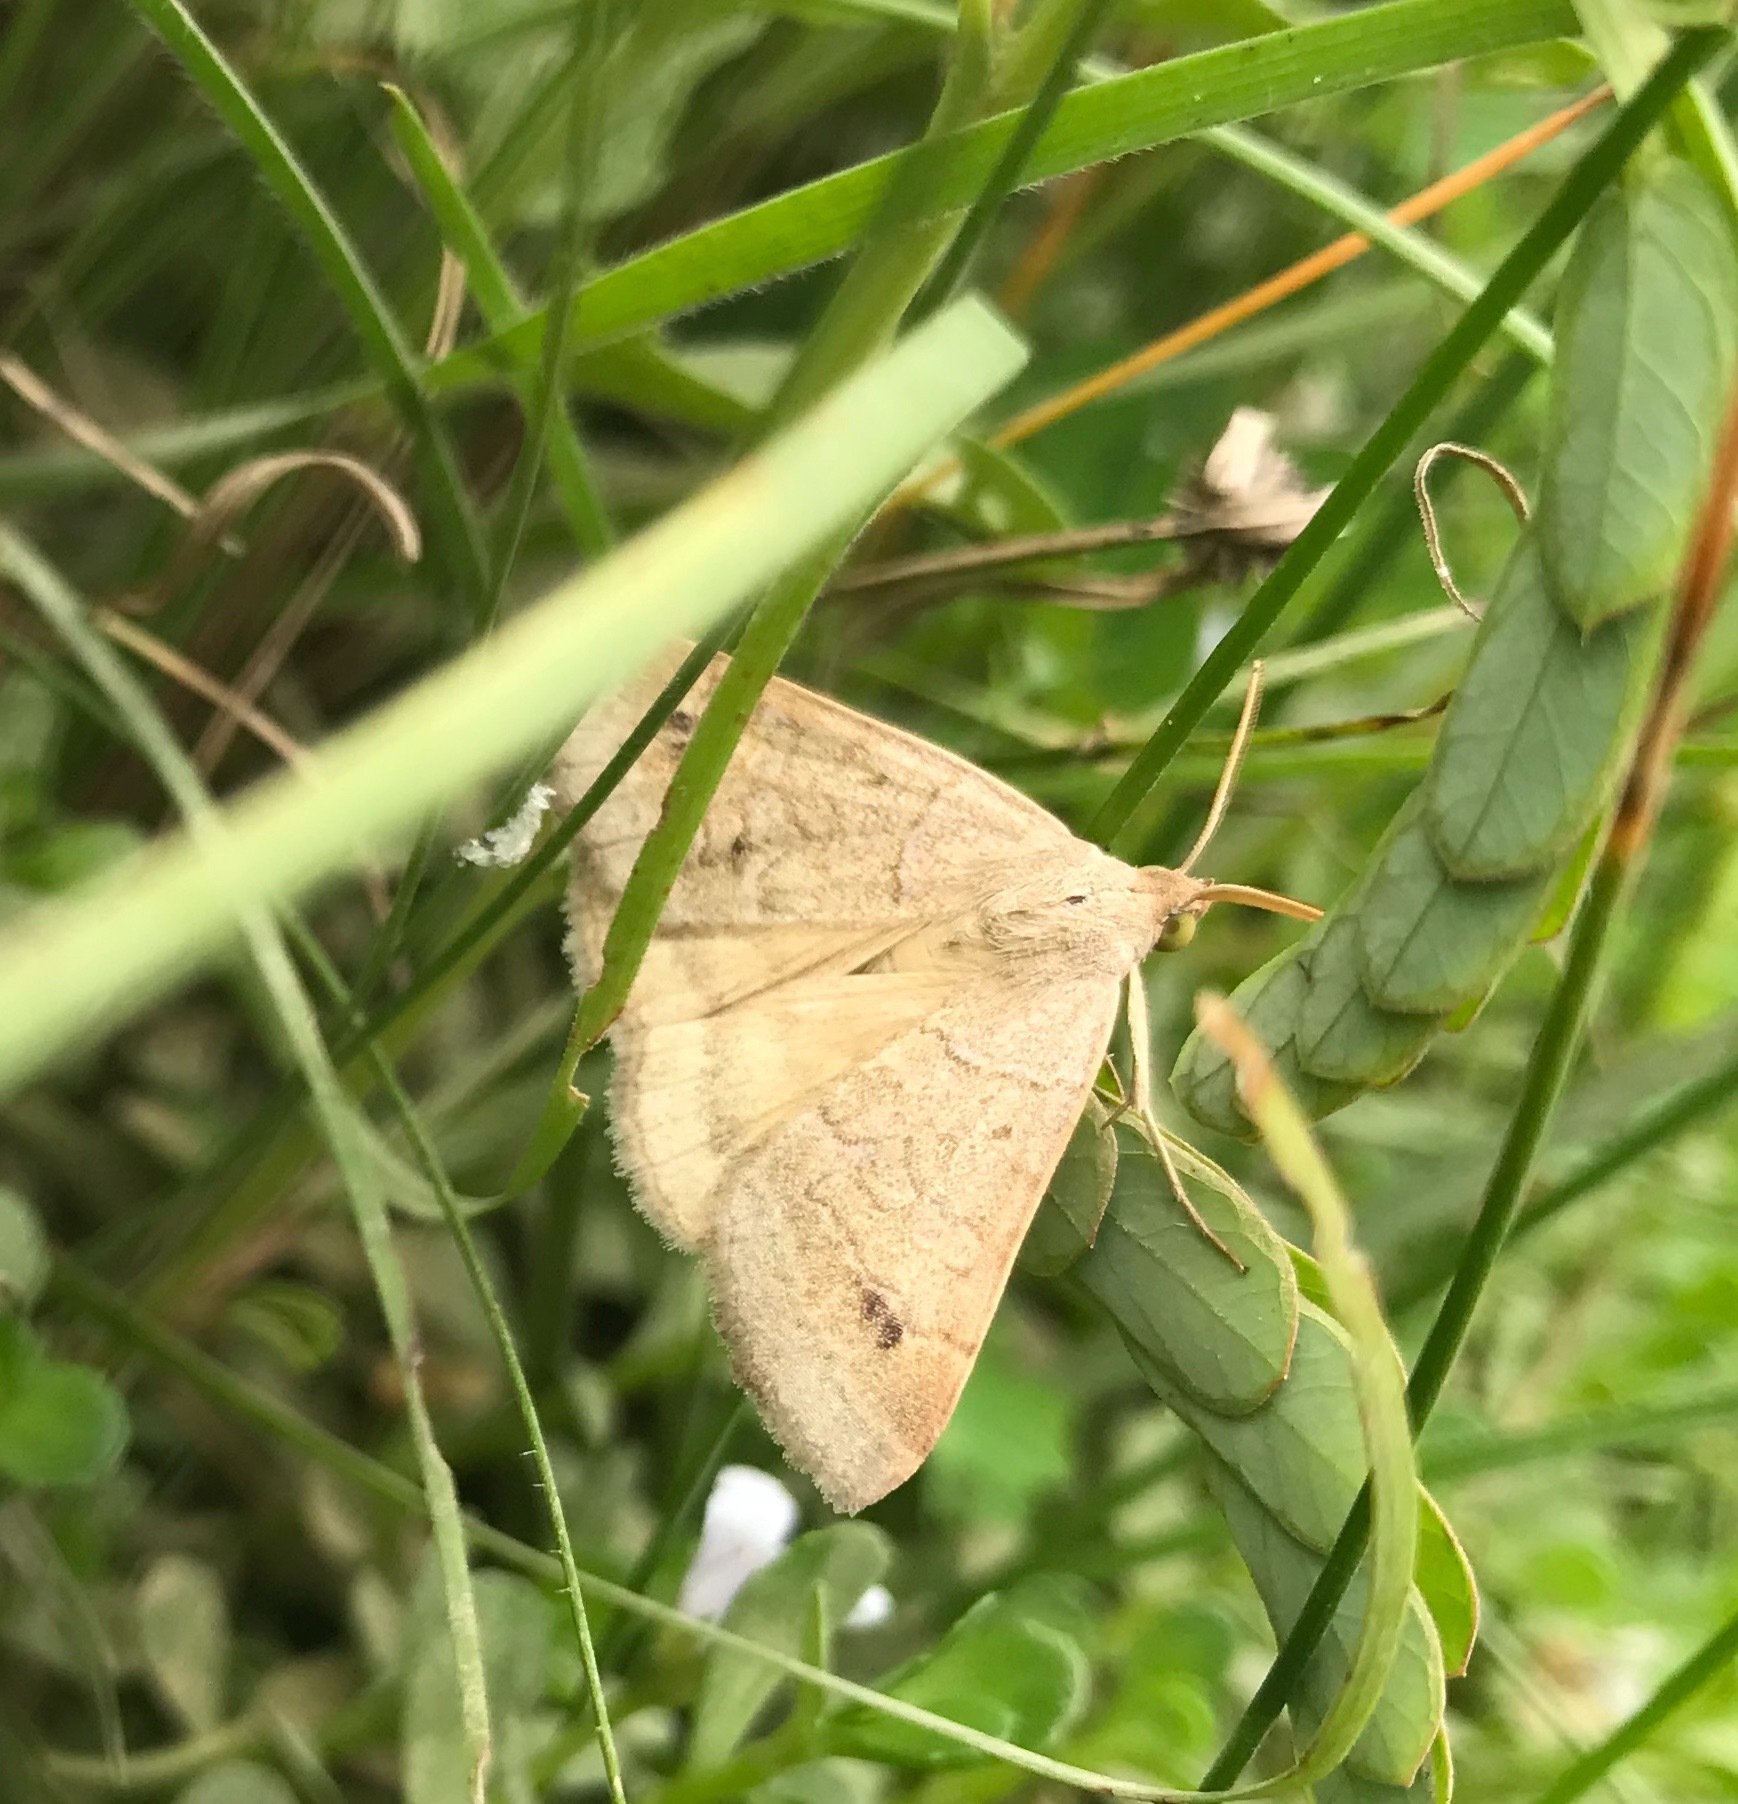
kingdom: Animalia
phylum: Arthropoda
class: Insecta
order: Lepidoptera
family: Erebidae
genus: Caenurgia
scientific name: Caenurgia chloropha
